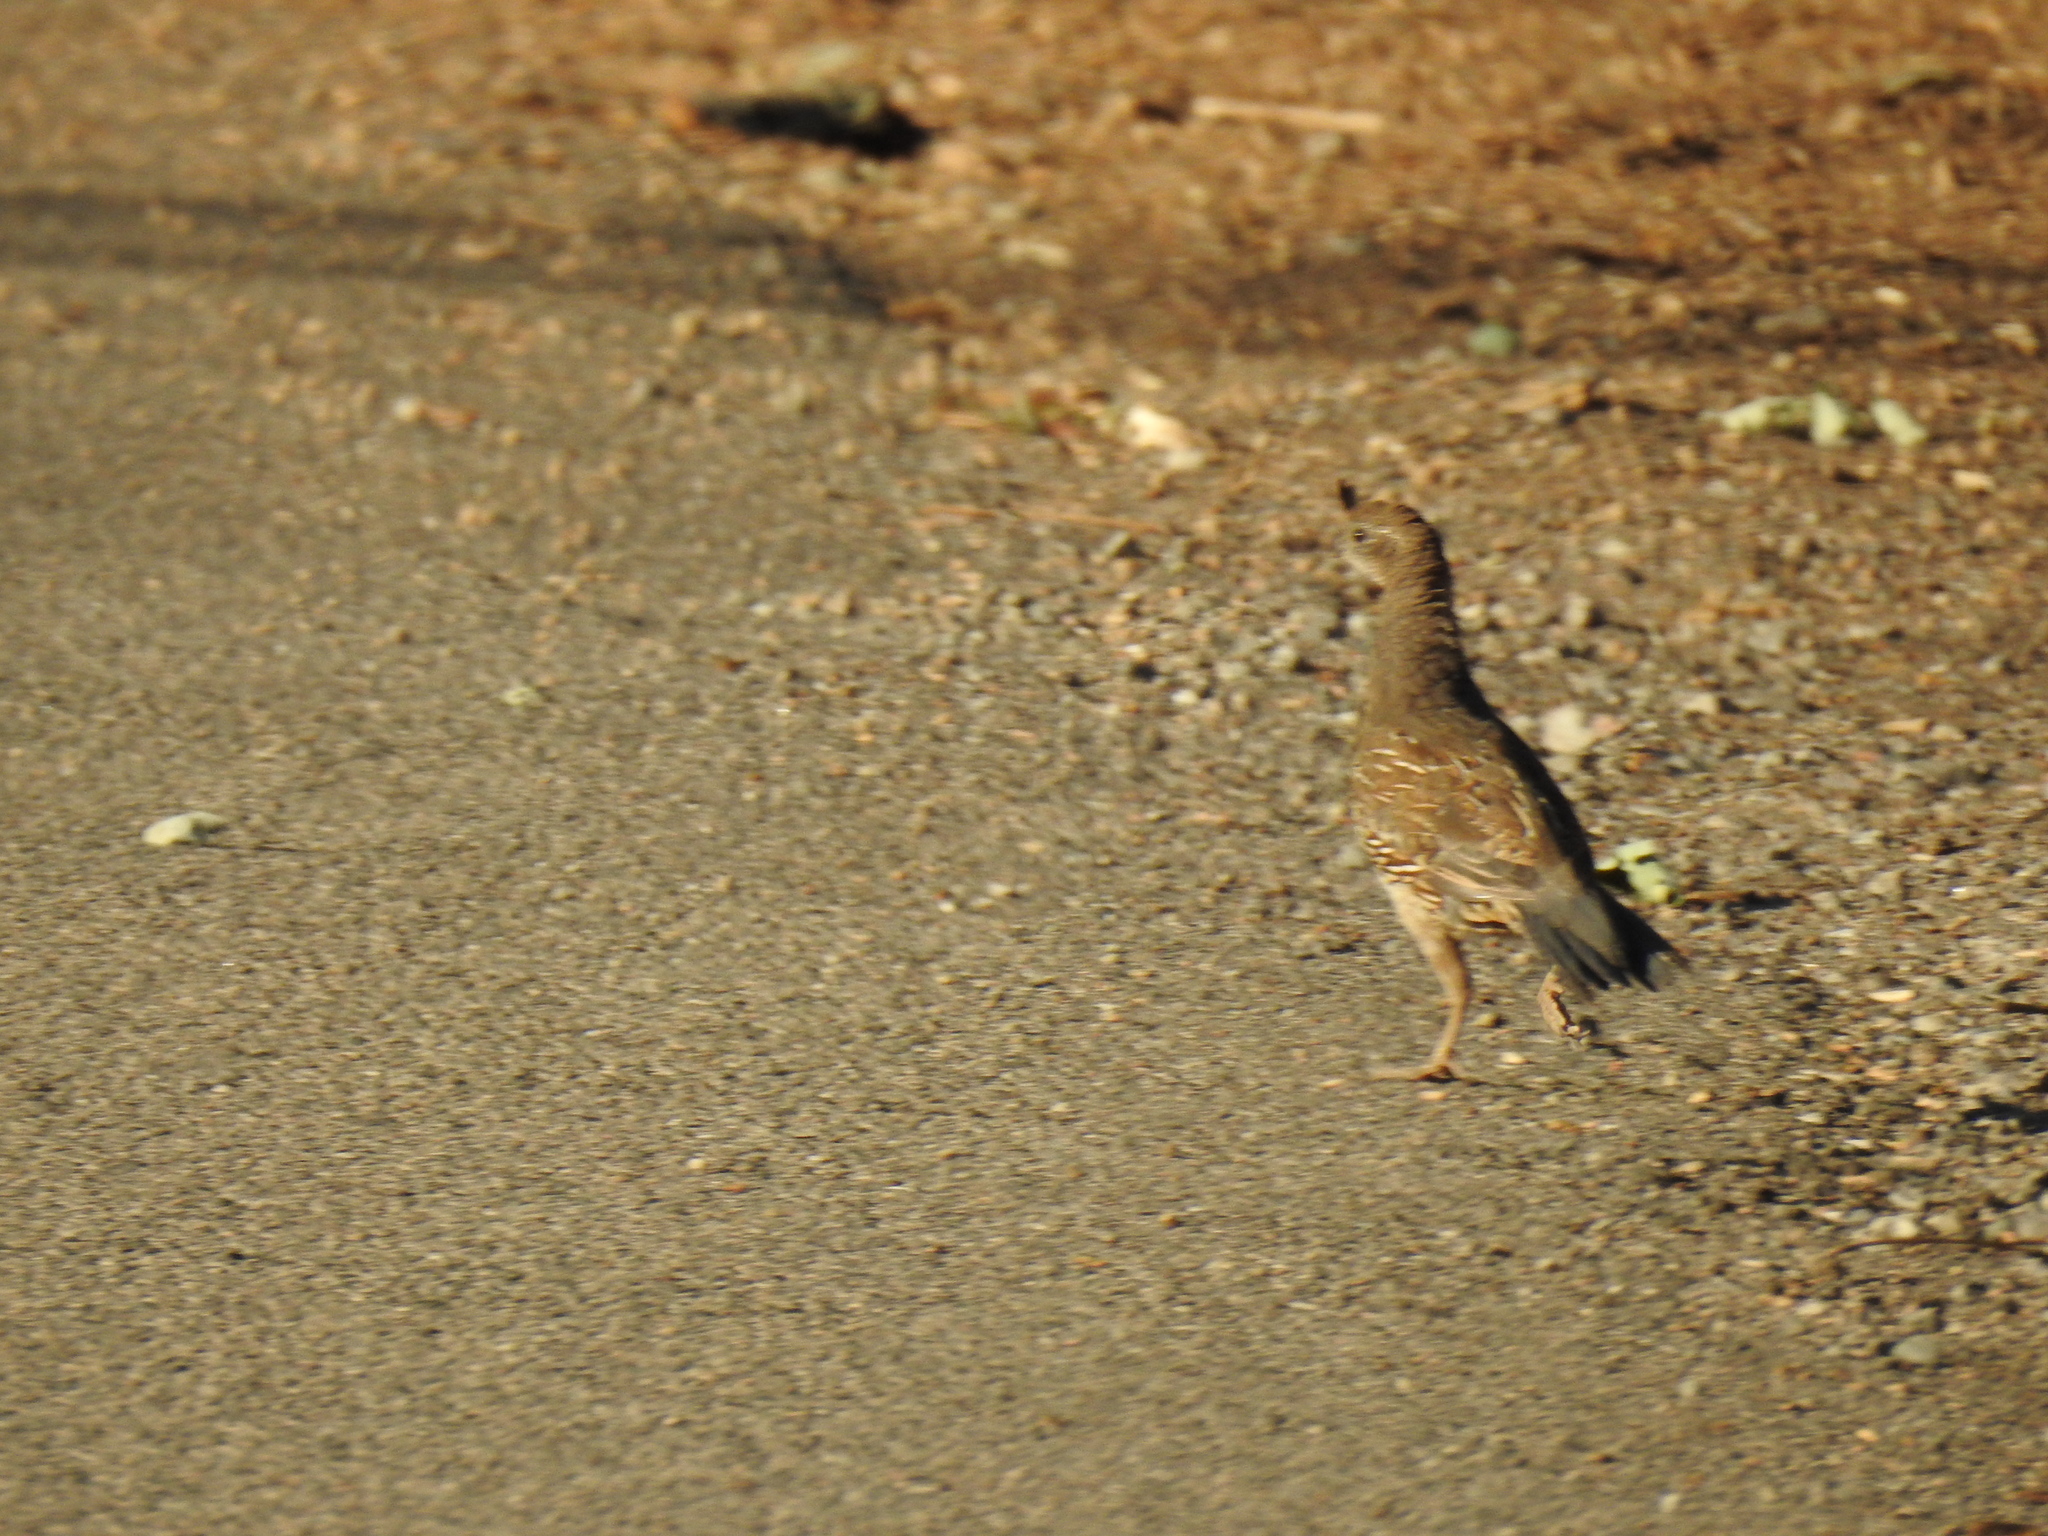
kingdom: Animalia
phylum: Chordata
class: Aves
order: Galliformes
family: Odontophoridae
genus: Callipepla
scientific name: Callipepla californica
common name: California quail
